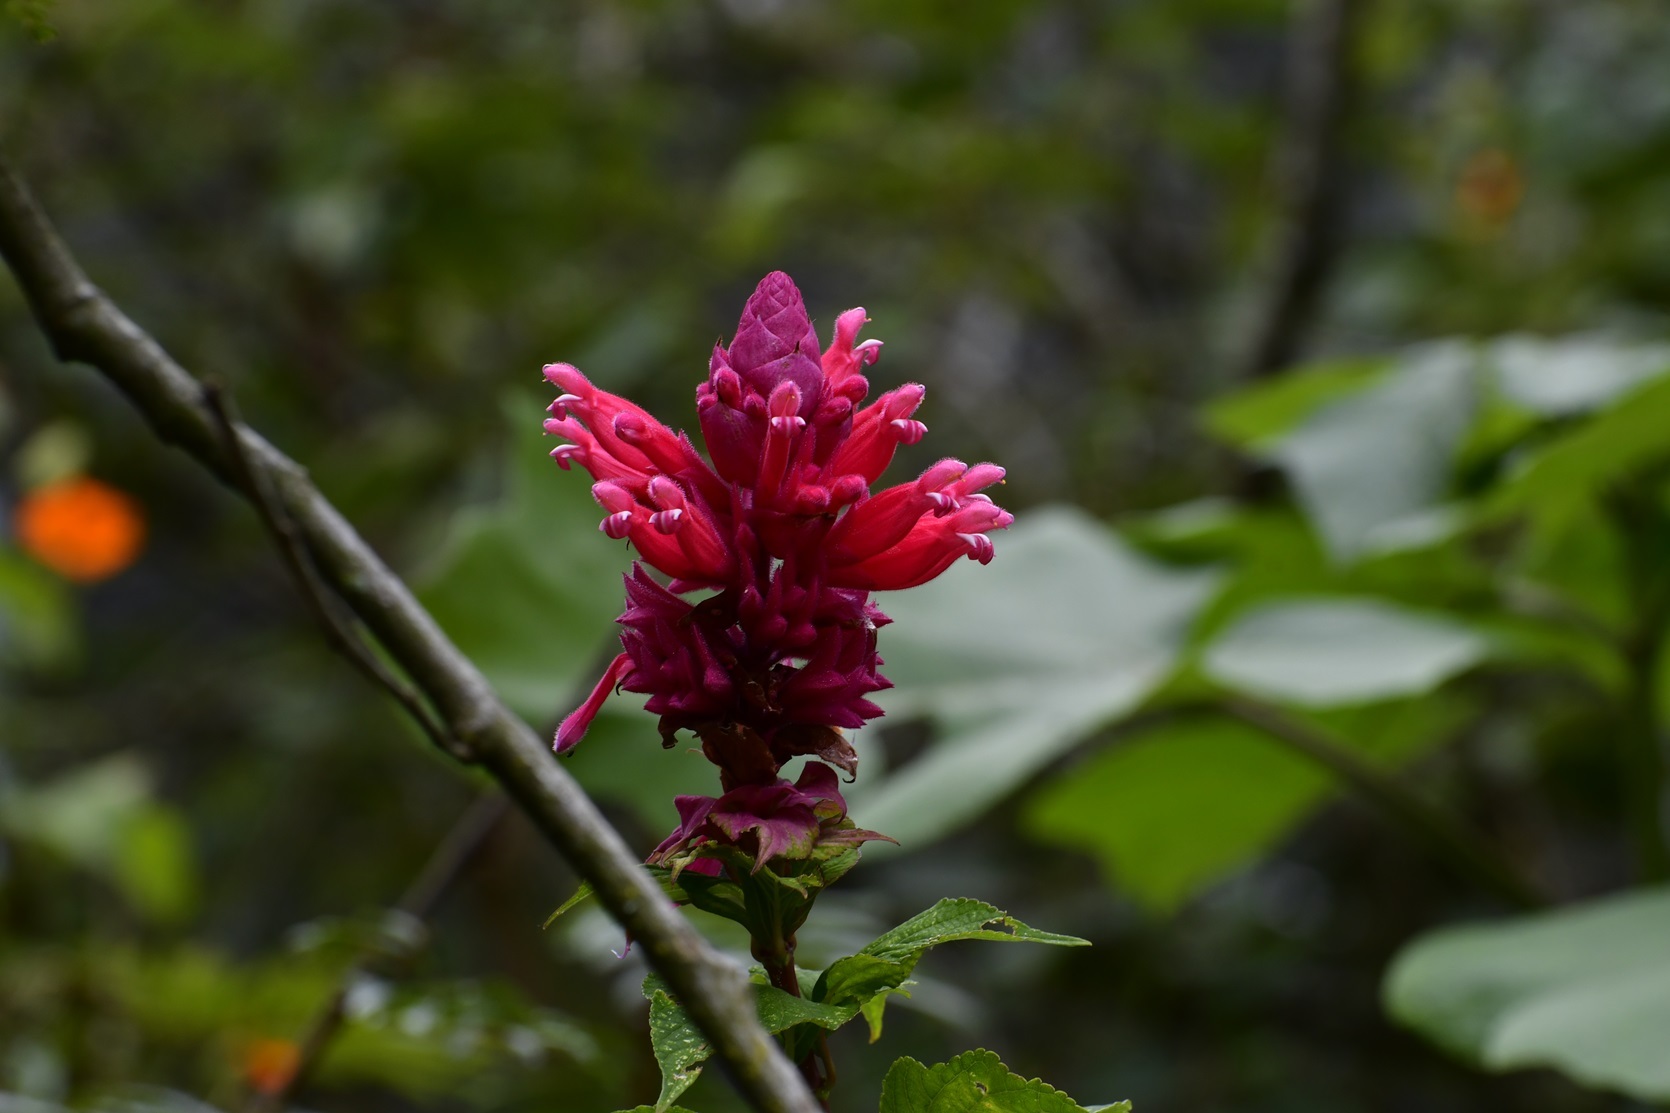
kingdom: Plantae
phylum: Tracheophyta
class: Magnoliopsida
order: Lamiales
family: Lamiaceae
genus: Salvia
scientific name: Salvia wagneriana
